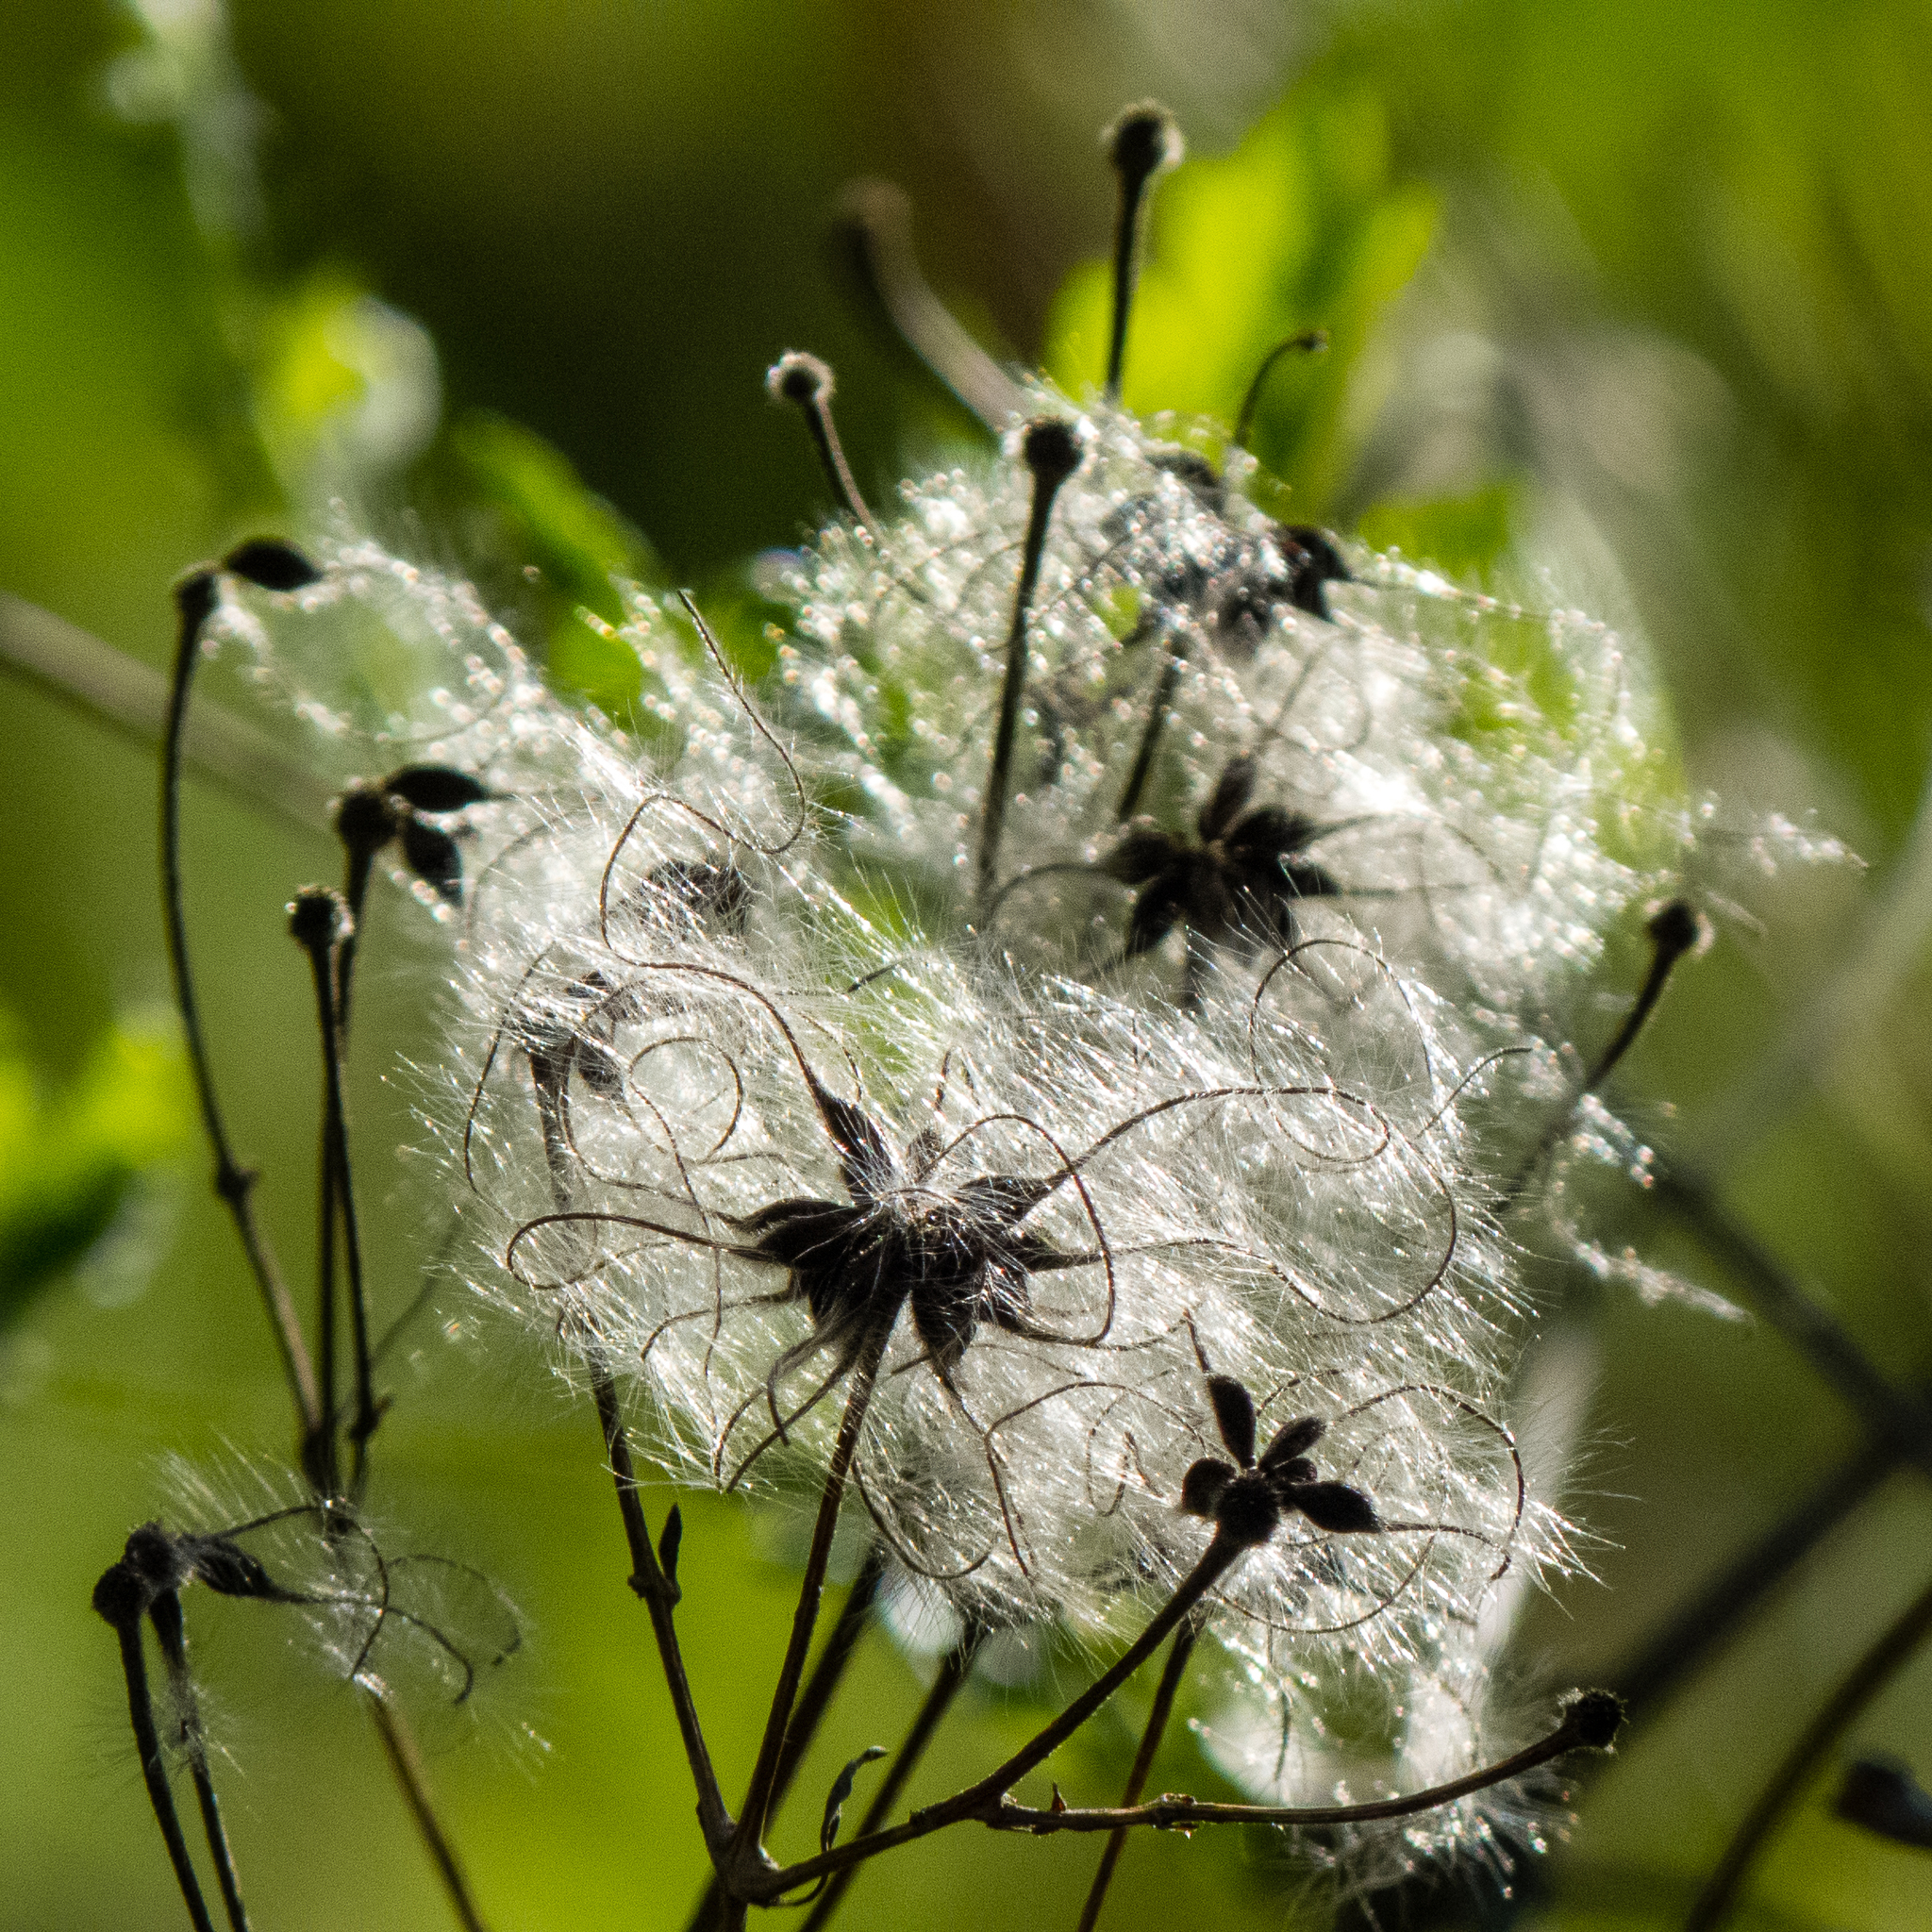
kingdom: Plantae
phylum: Tracheophyta
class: Magnoliopsida
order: Ranunculales
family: Ranunculaceae
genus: Clematis
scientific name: Clematis vitalba
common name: Evergreen clematis
